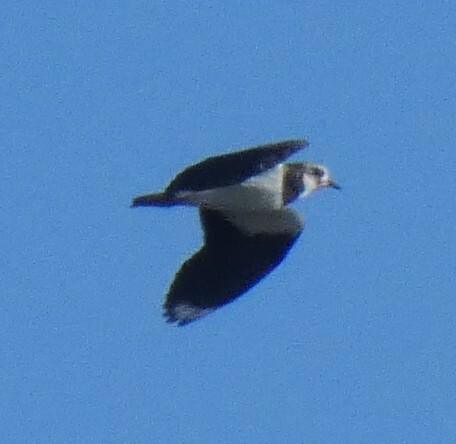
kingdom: Animalia
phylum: Chordata
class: Aves
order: Charadriiformes
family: Charadriidae
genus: Vanellus
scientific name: Vanellus vanellus
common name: Northern lapwing
